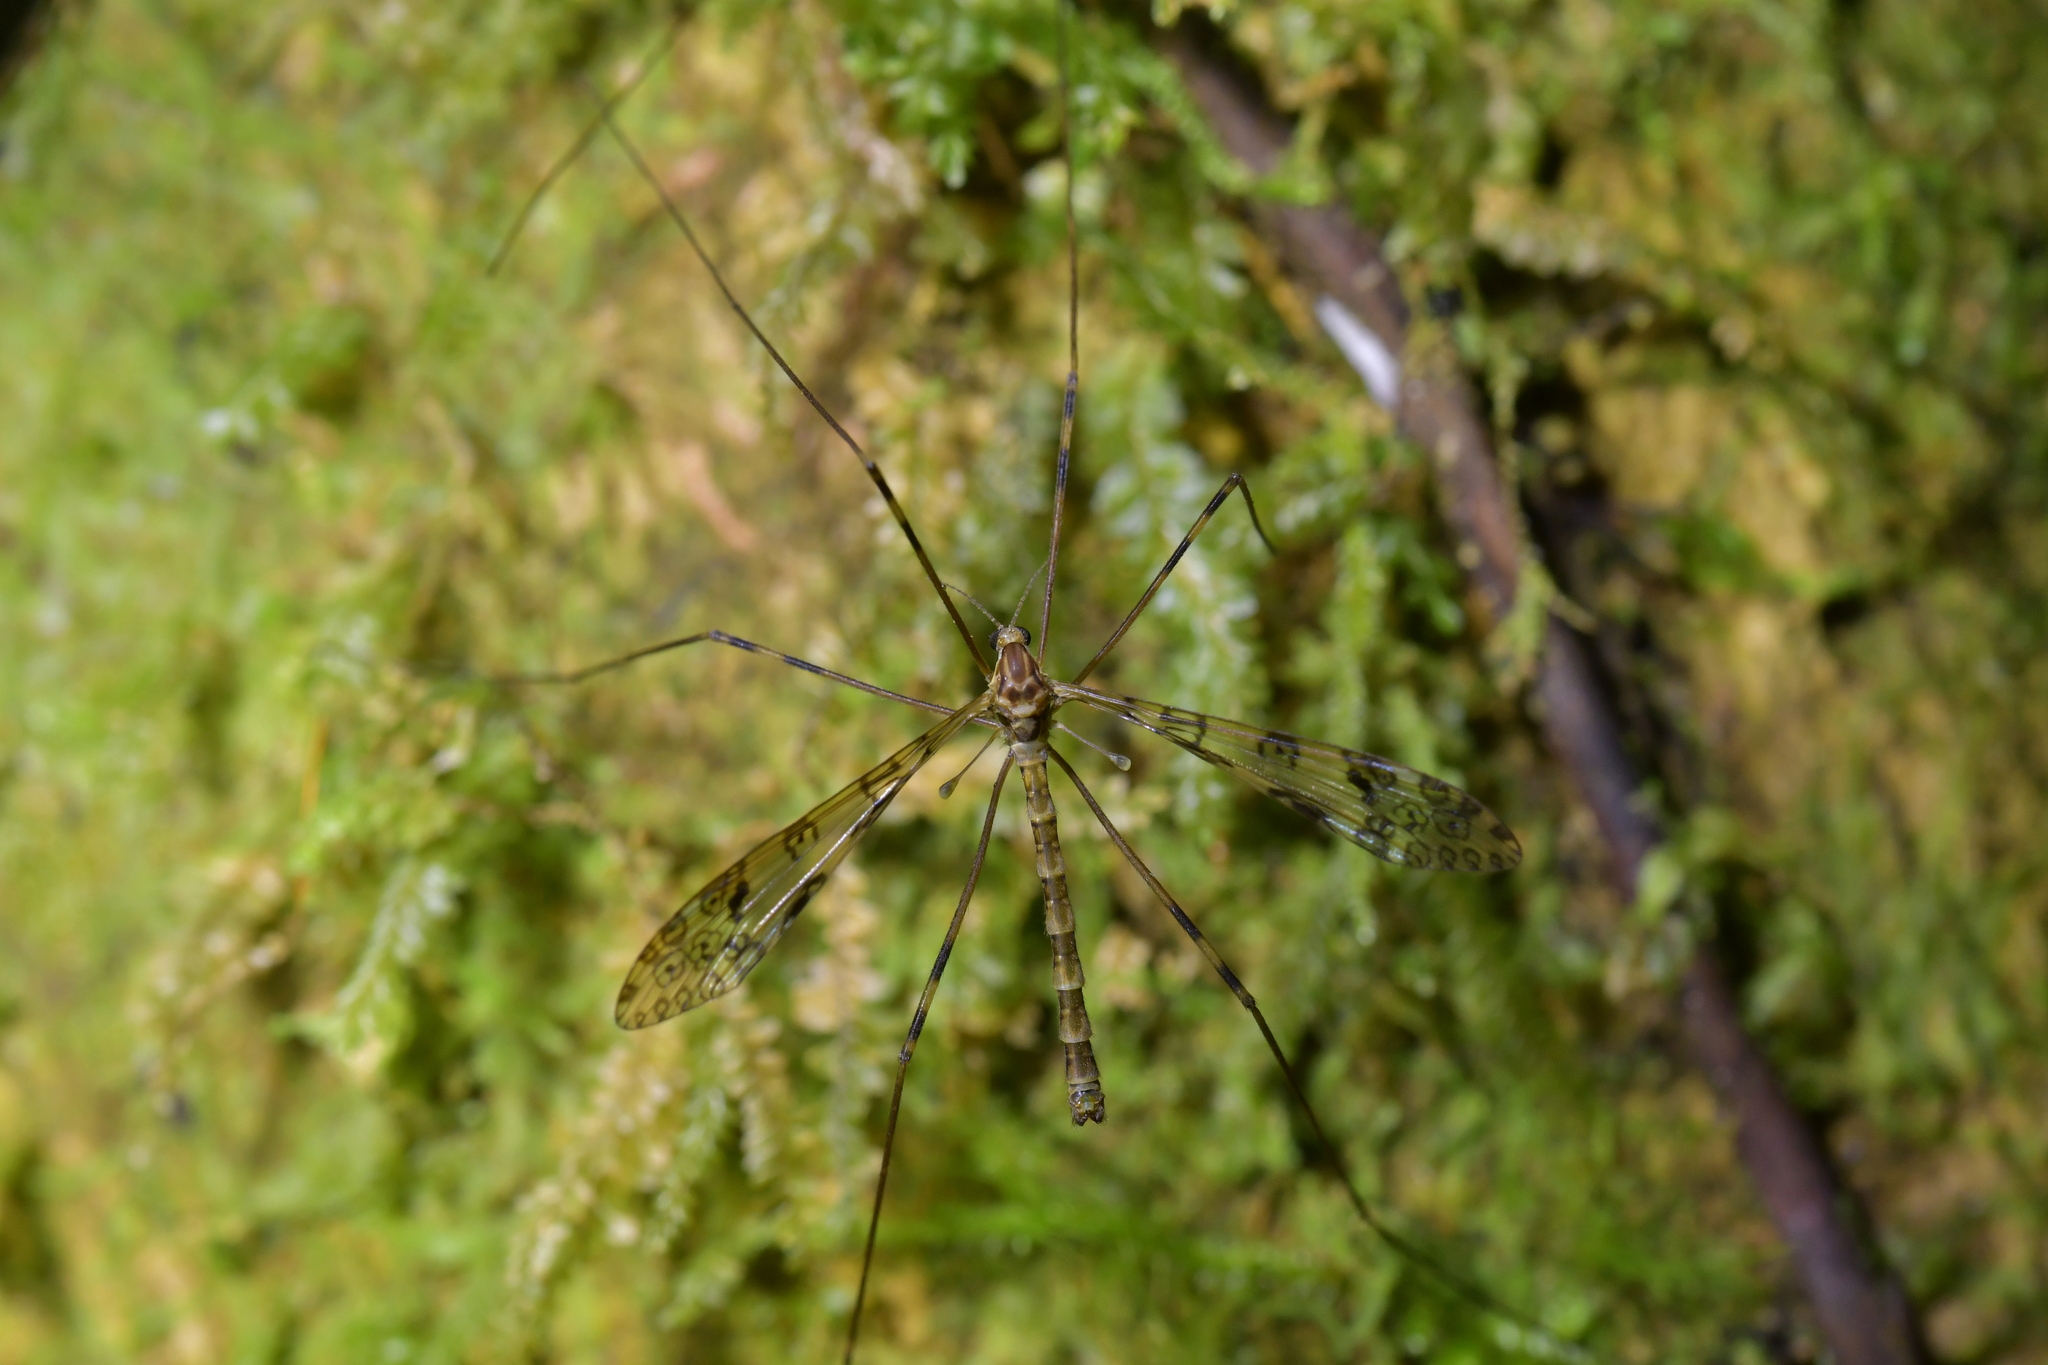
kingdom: Animalia
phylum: Arthropoda
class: Insecta
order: Diptera
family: Limoniidae
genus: Austrolimnophila
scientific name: Austrolimnophila argus
